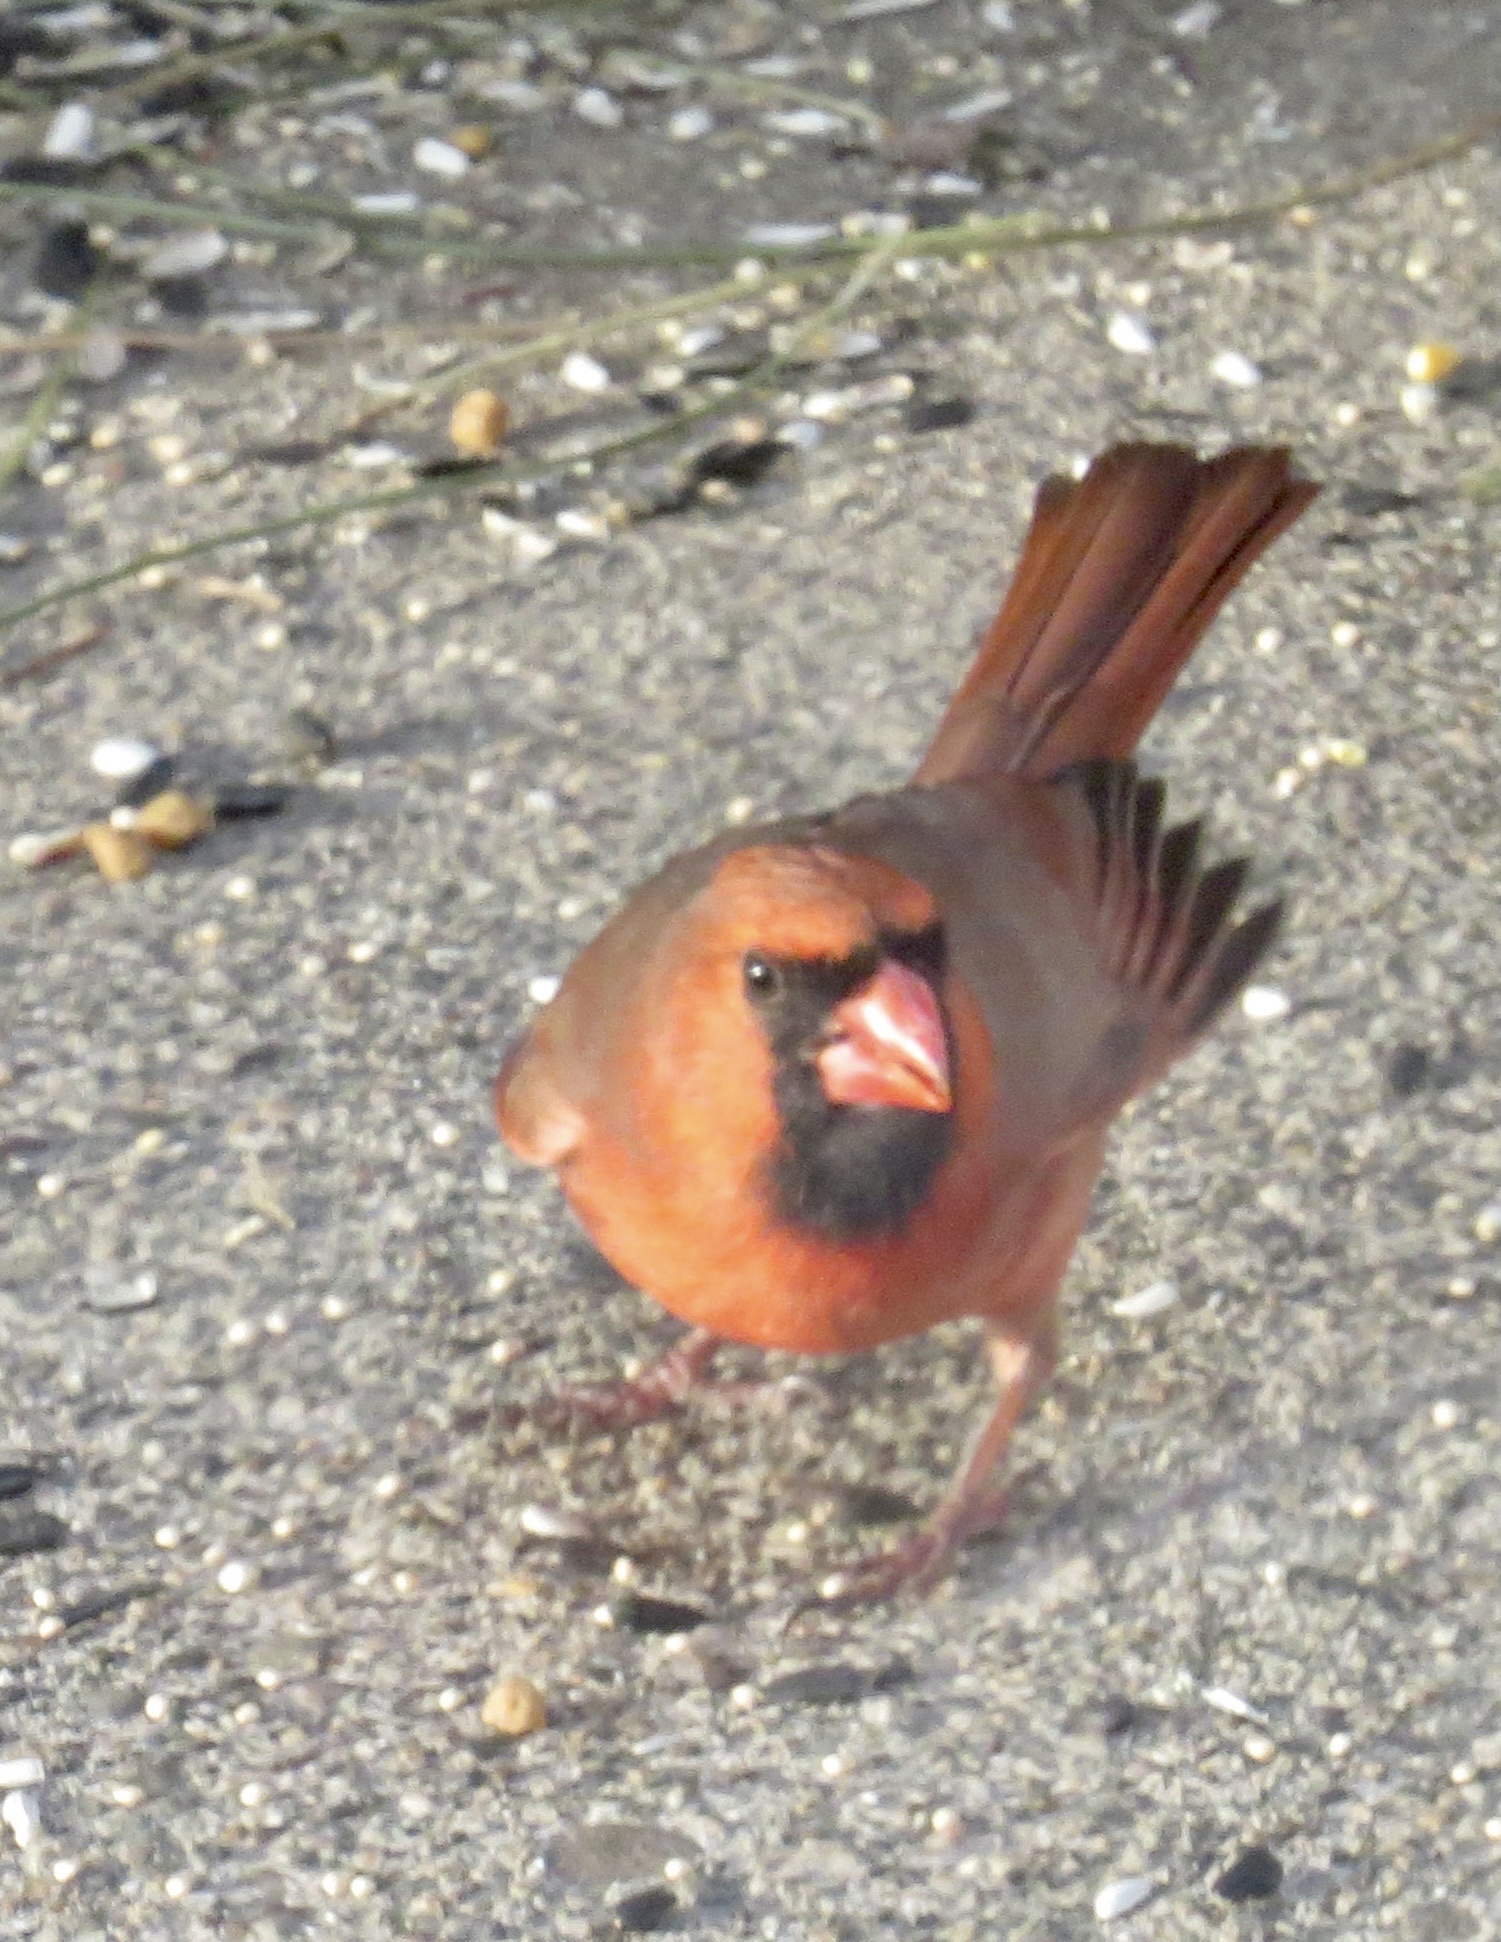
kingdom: Animalia
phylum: Chordata
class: Aves
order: Passeriformes
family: Cardinalidae
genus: Cardinalis
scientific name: Cardinalis cardinalis
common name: Northern cardinal
